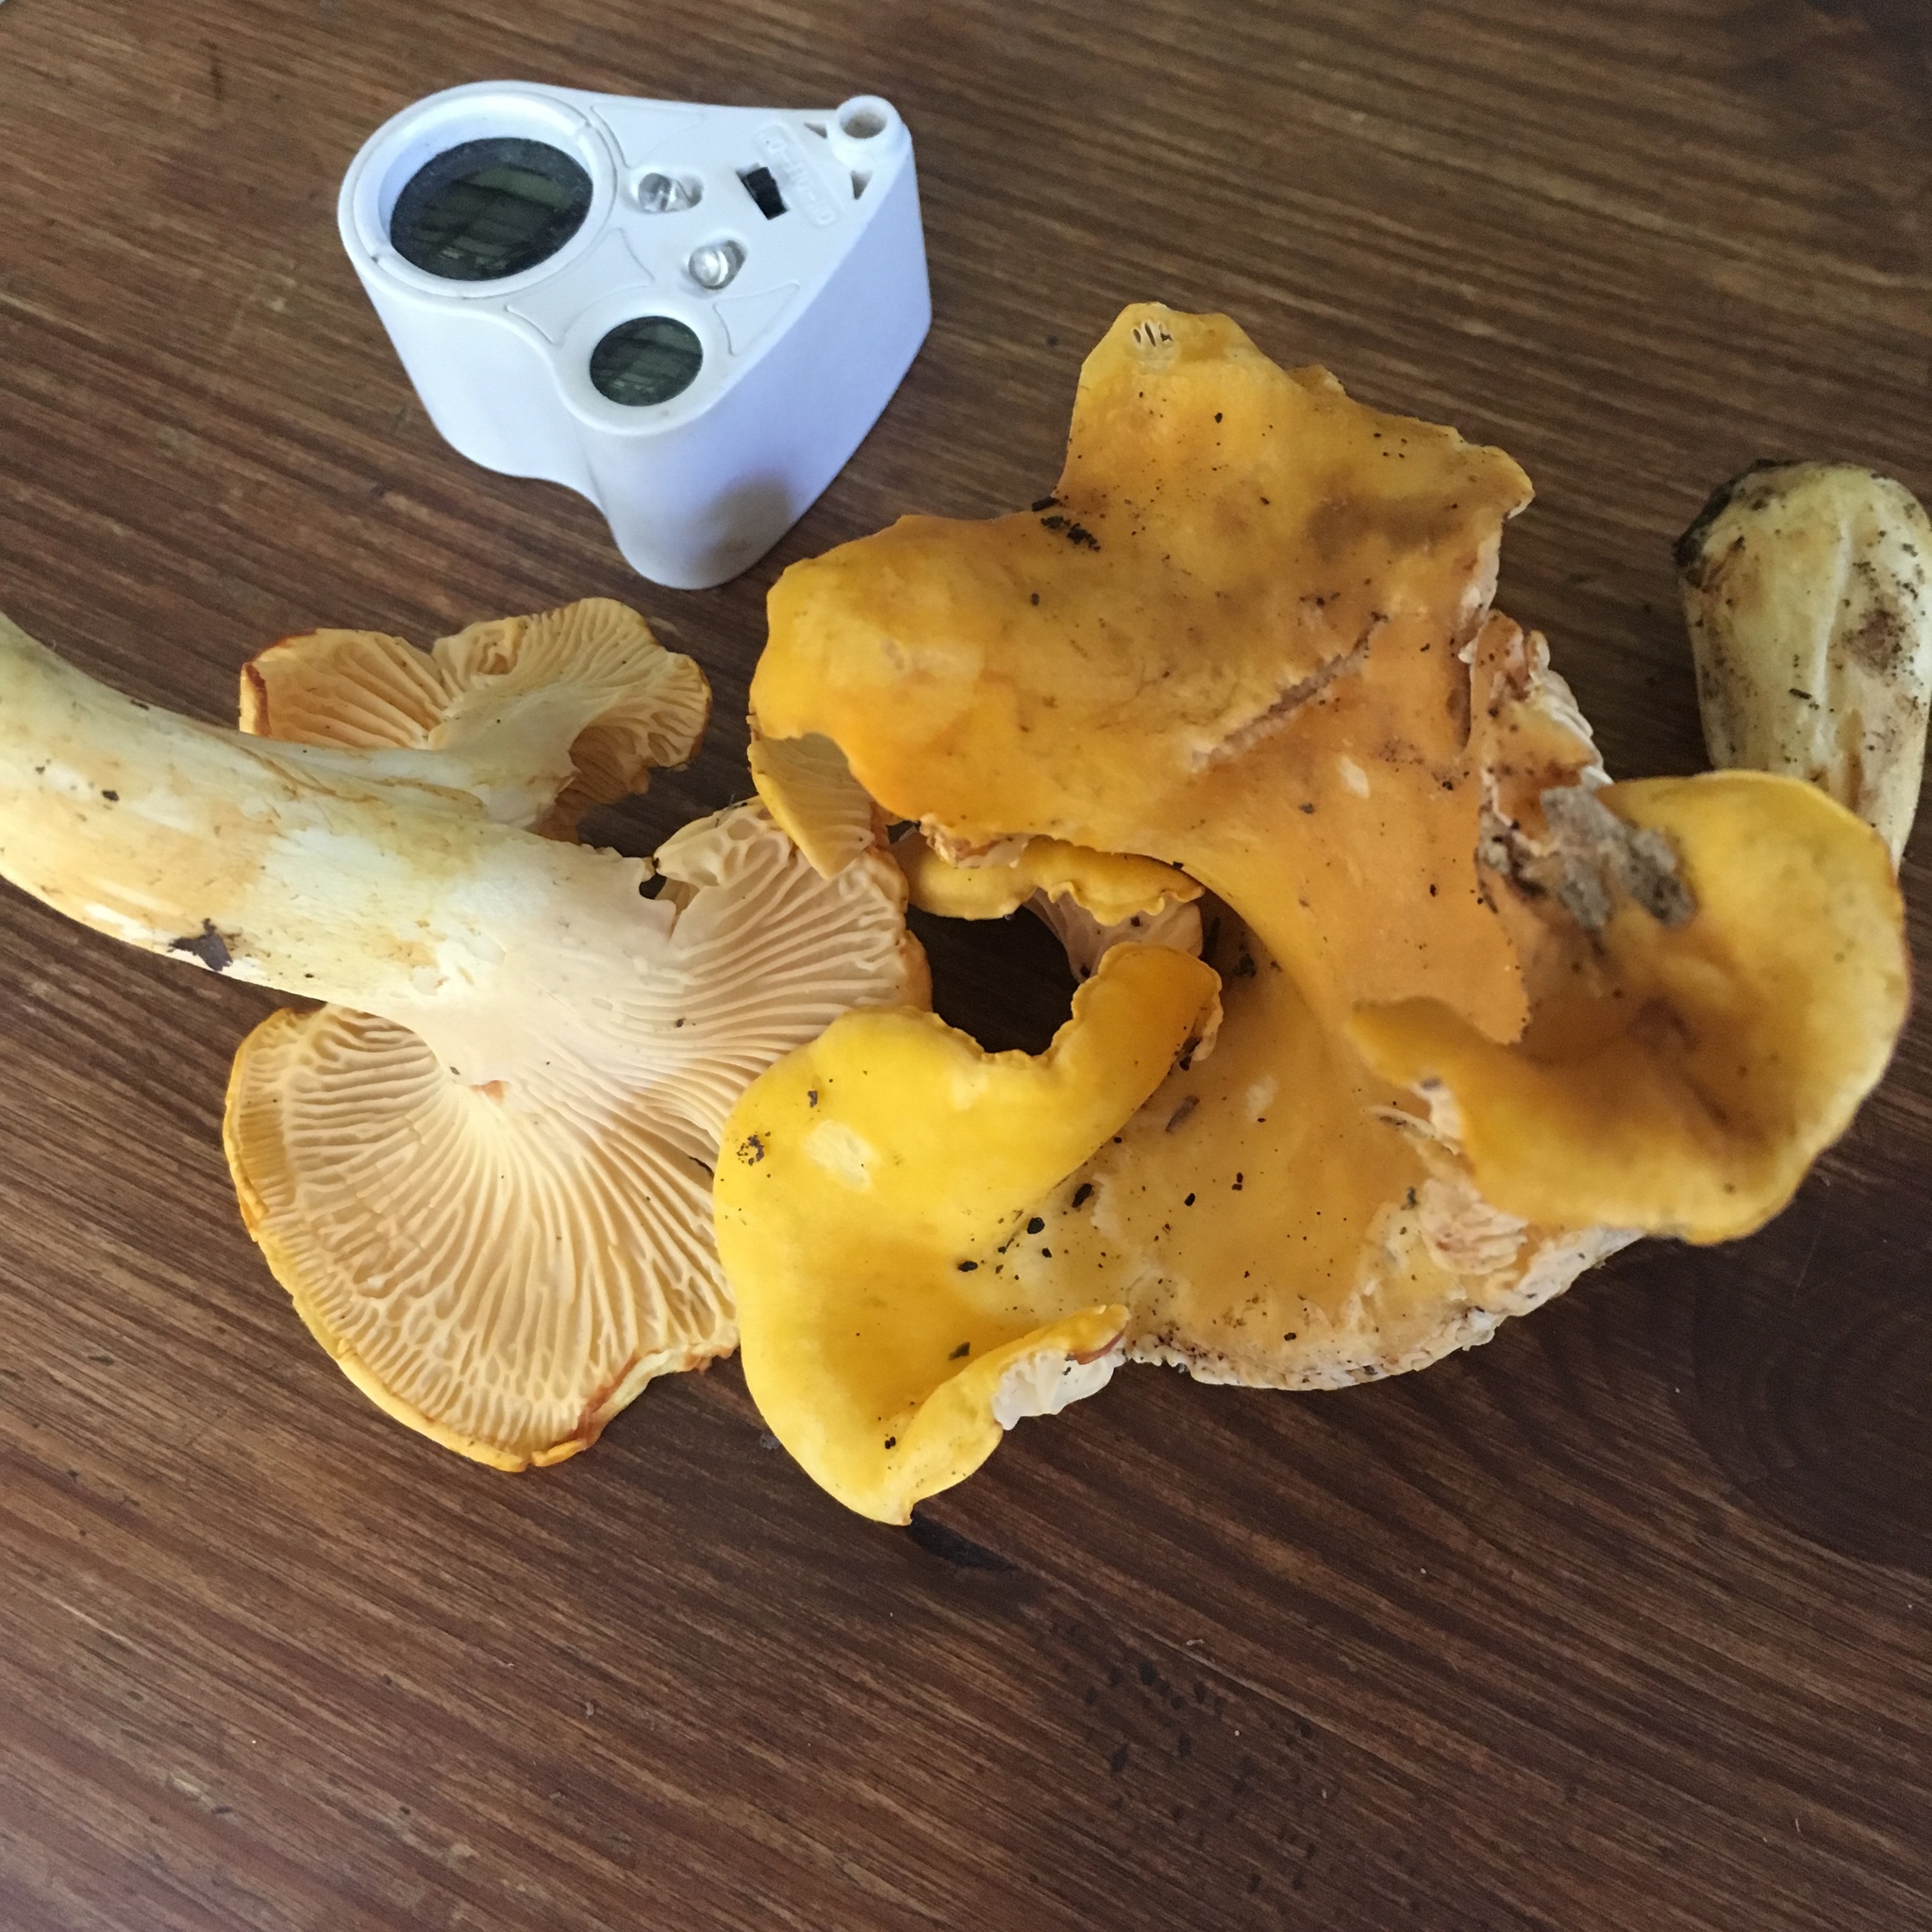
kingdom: Fungi
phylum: Basidiomycota
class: Agaricomycetes
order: Cantharellales
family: Hydnaceae
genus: Cantharellus
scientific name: Cantharellus cibarius
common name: Chanterelle
